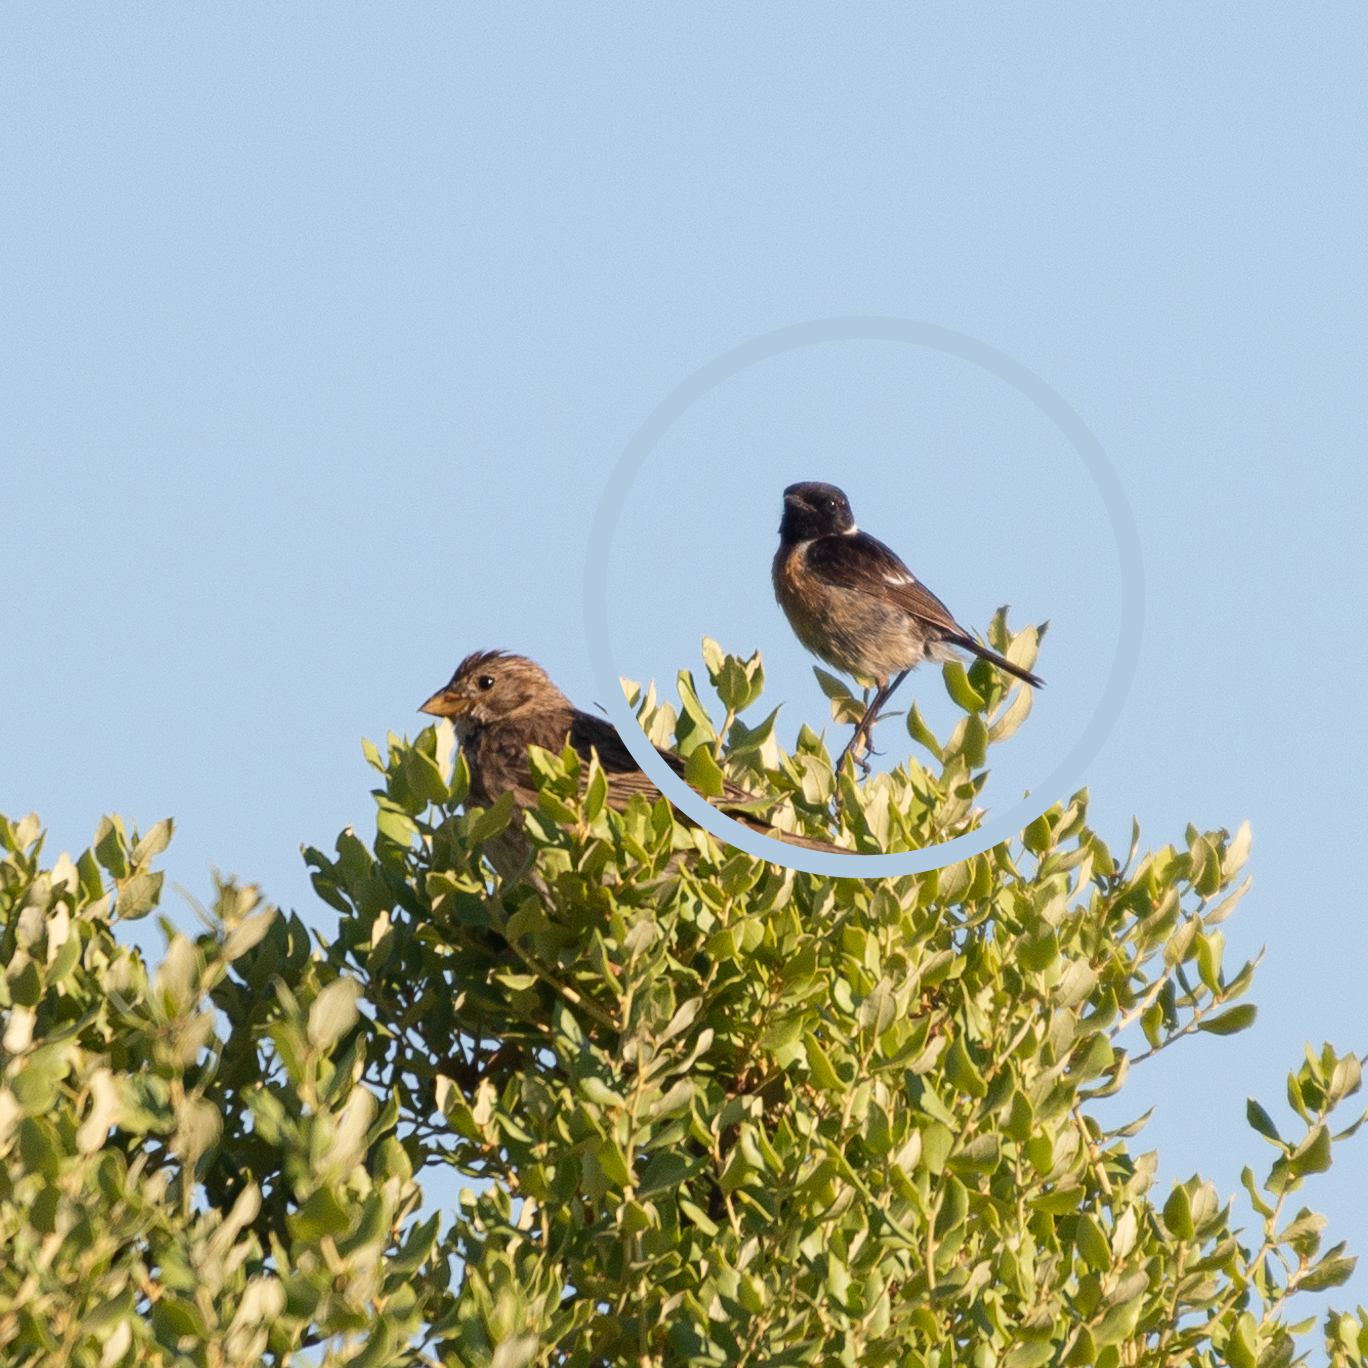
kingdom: Animalia
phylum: Chordata
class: Aves
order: Passeriformes
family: Muscicapidae
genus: Saxicola
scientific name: Saxicola rubicola
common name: European stonechat
